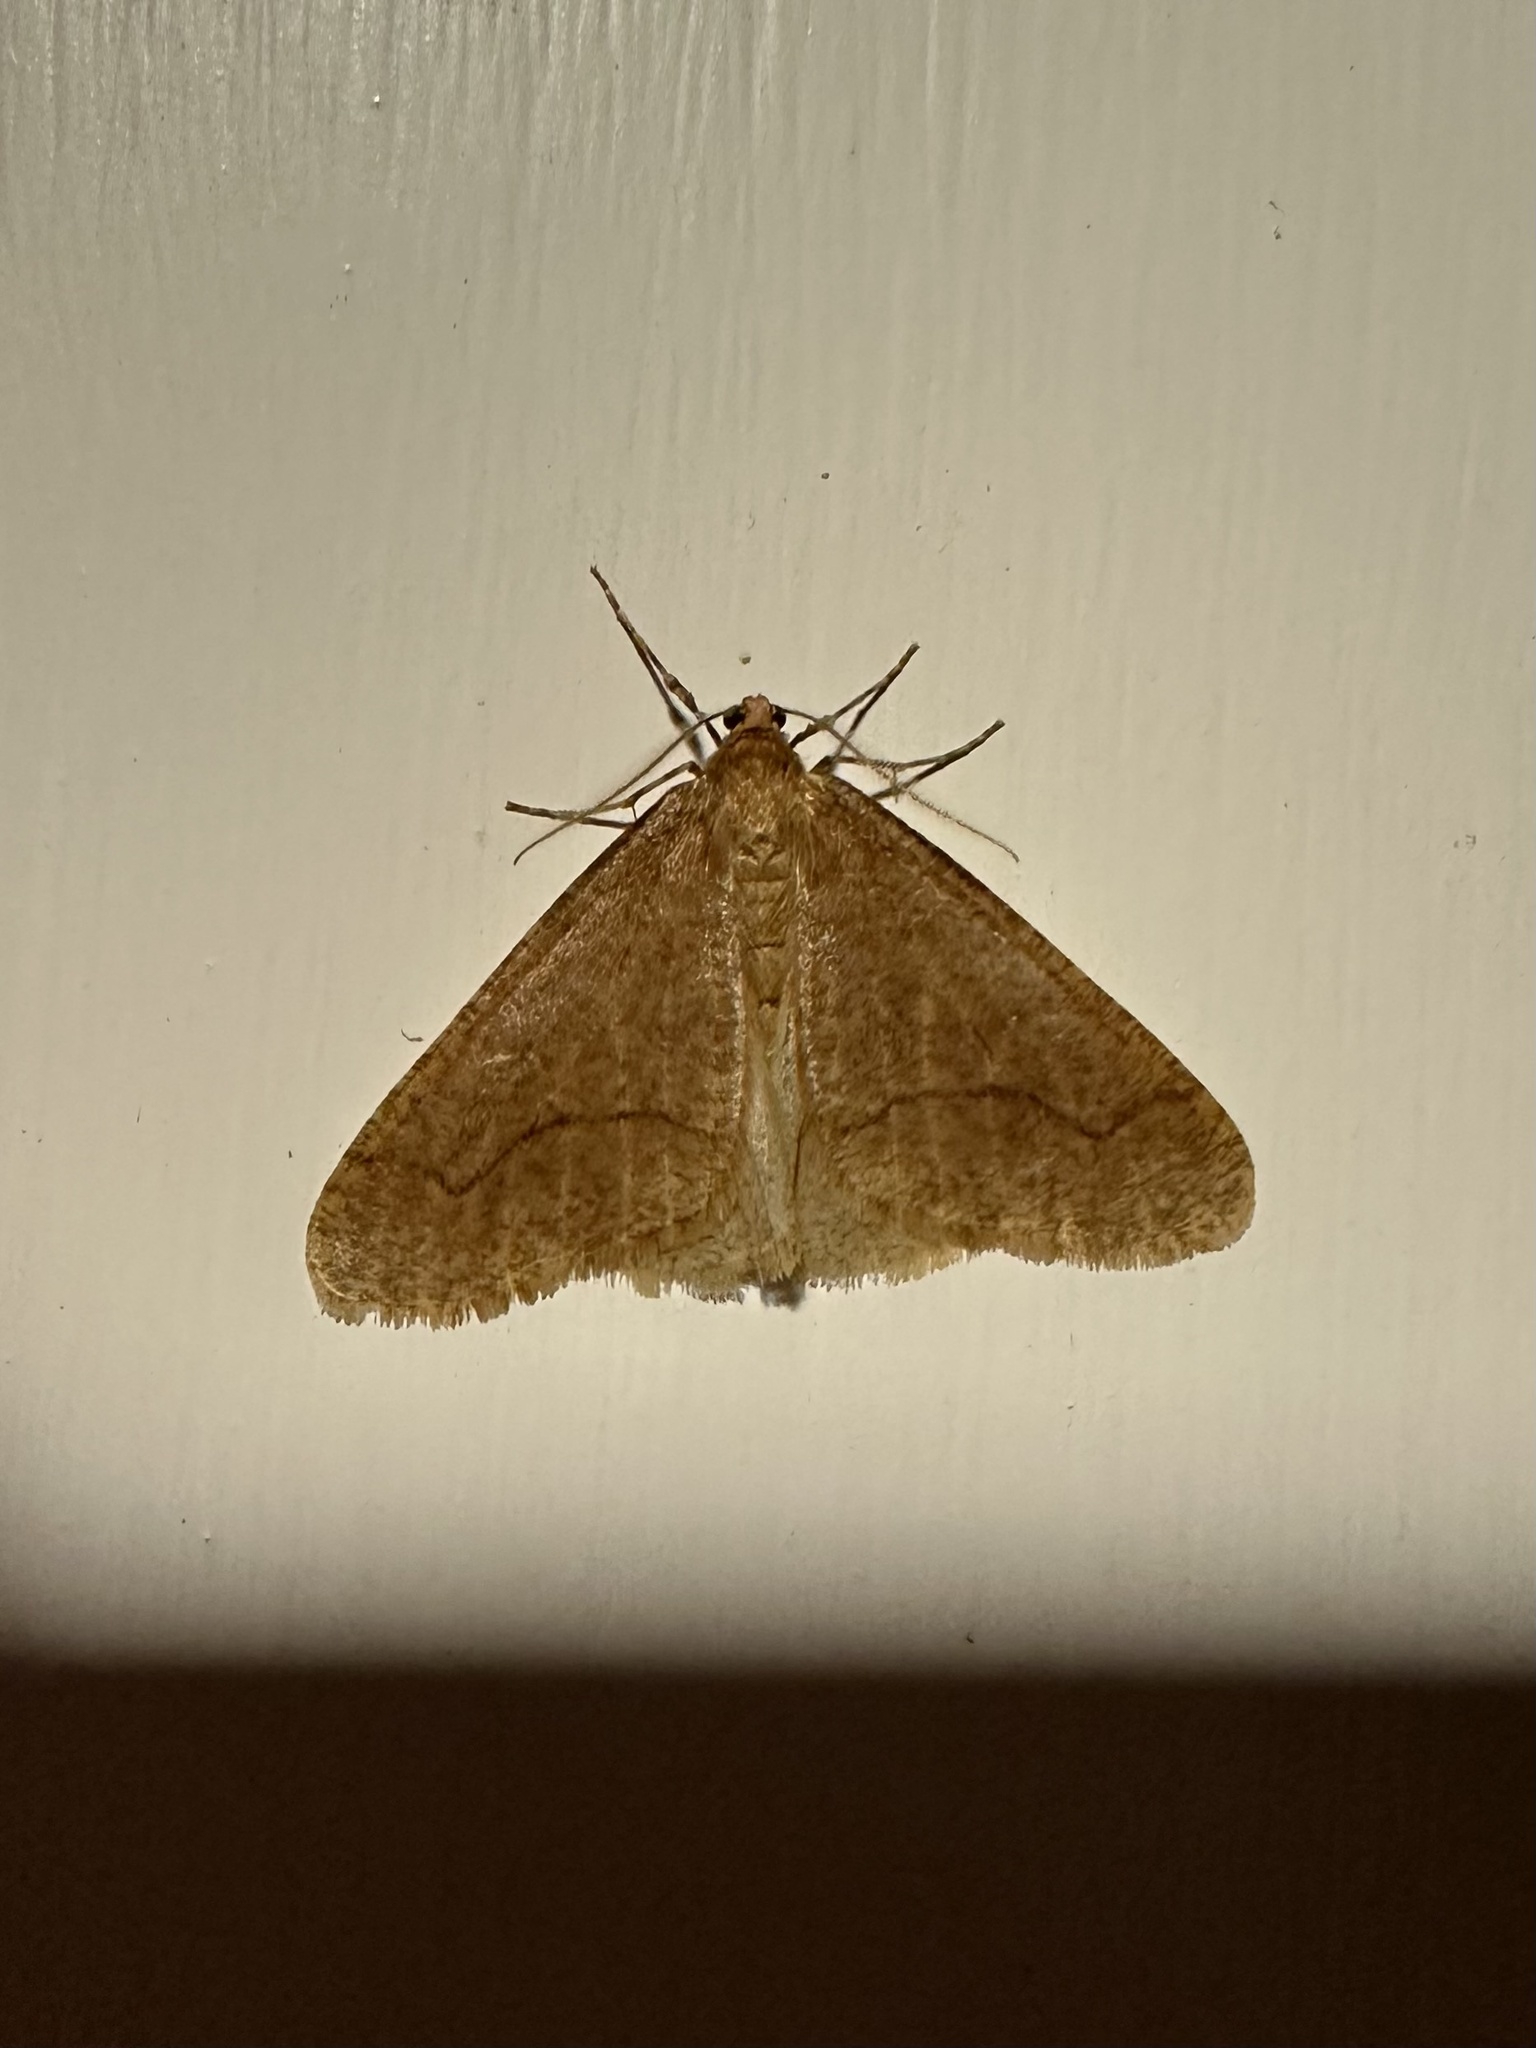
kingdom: Animalia
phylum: Arthropoda
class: Insecta
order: Lepidoptera
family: Geometridae
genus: Erannis
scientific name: Erannis tiliaria
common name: Linden looper
